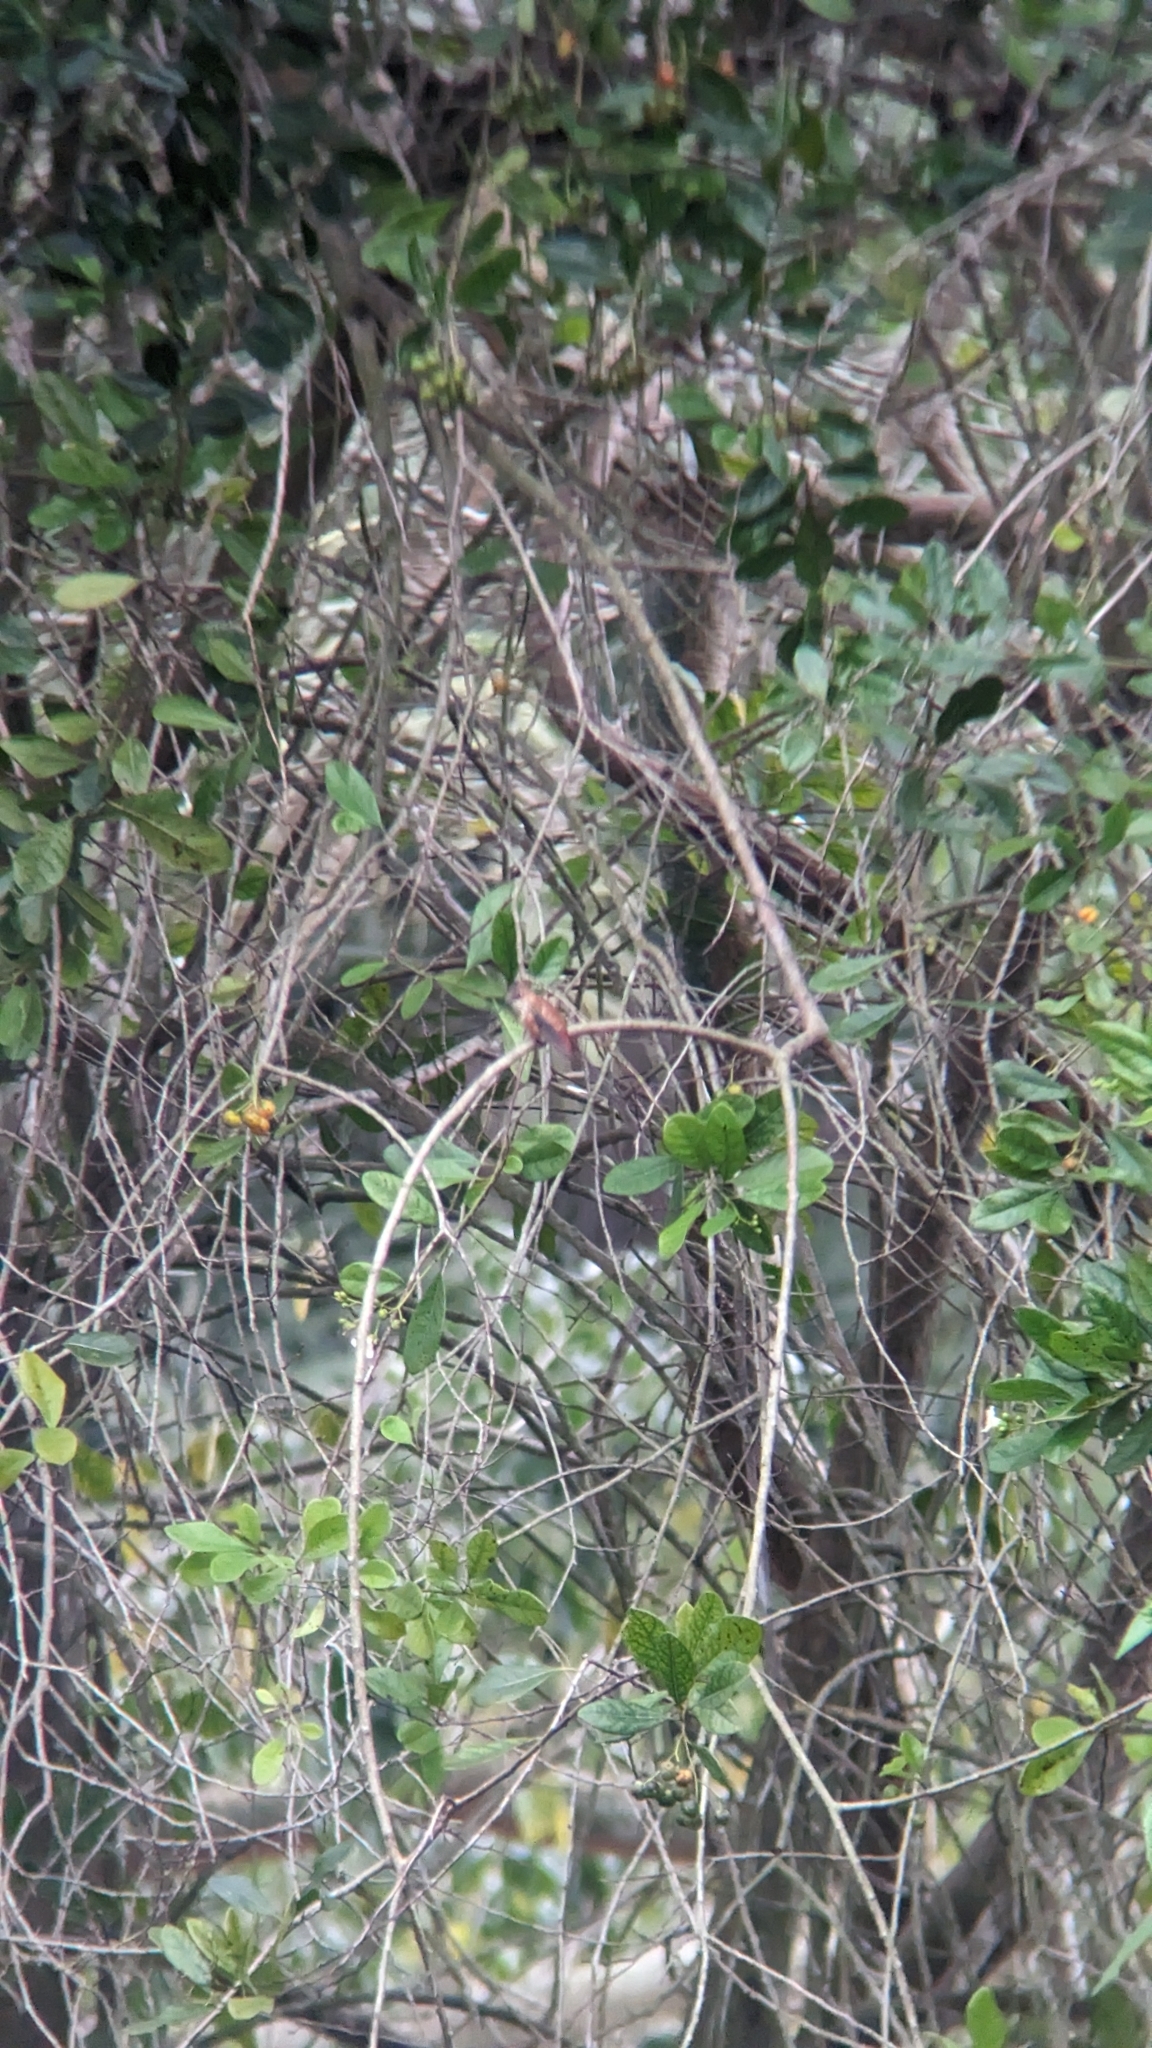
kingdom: Animalia
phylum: Chordata
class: Aves
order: Apodiformes
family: Trochilidae
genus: Selasphorus
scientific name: Selasphorus rufus
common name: Rufous hummingbird
